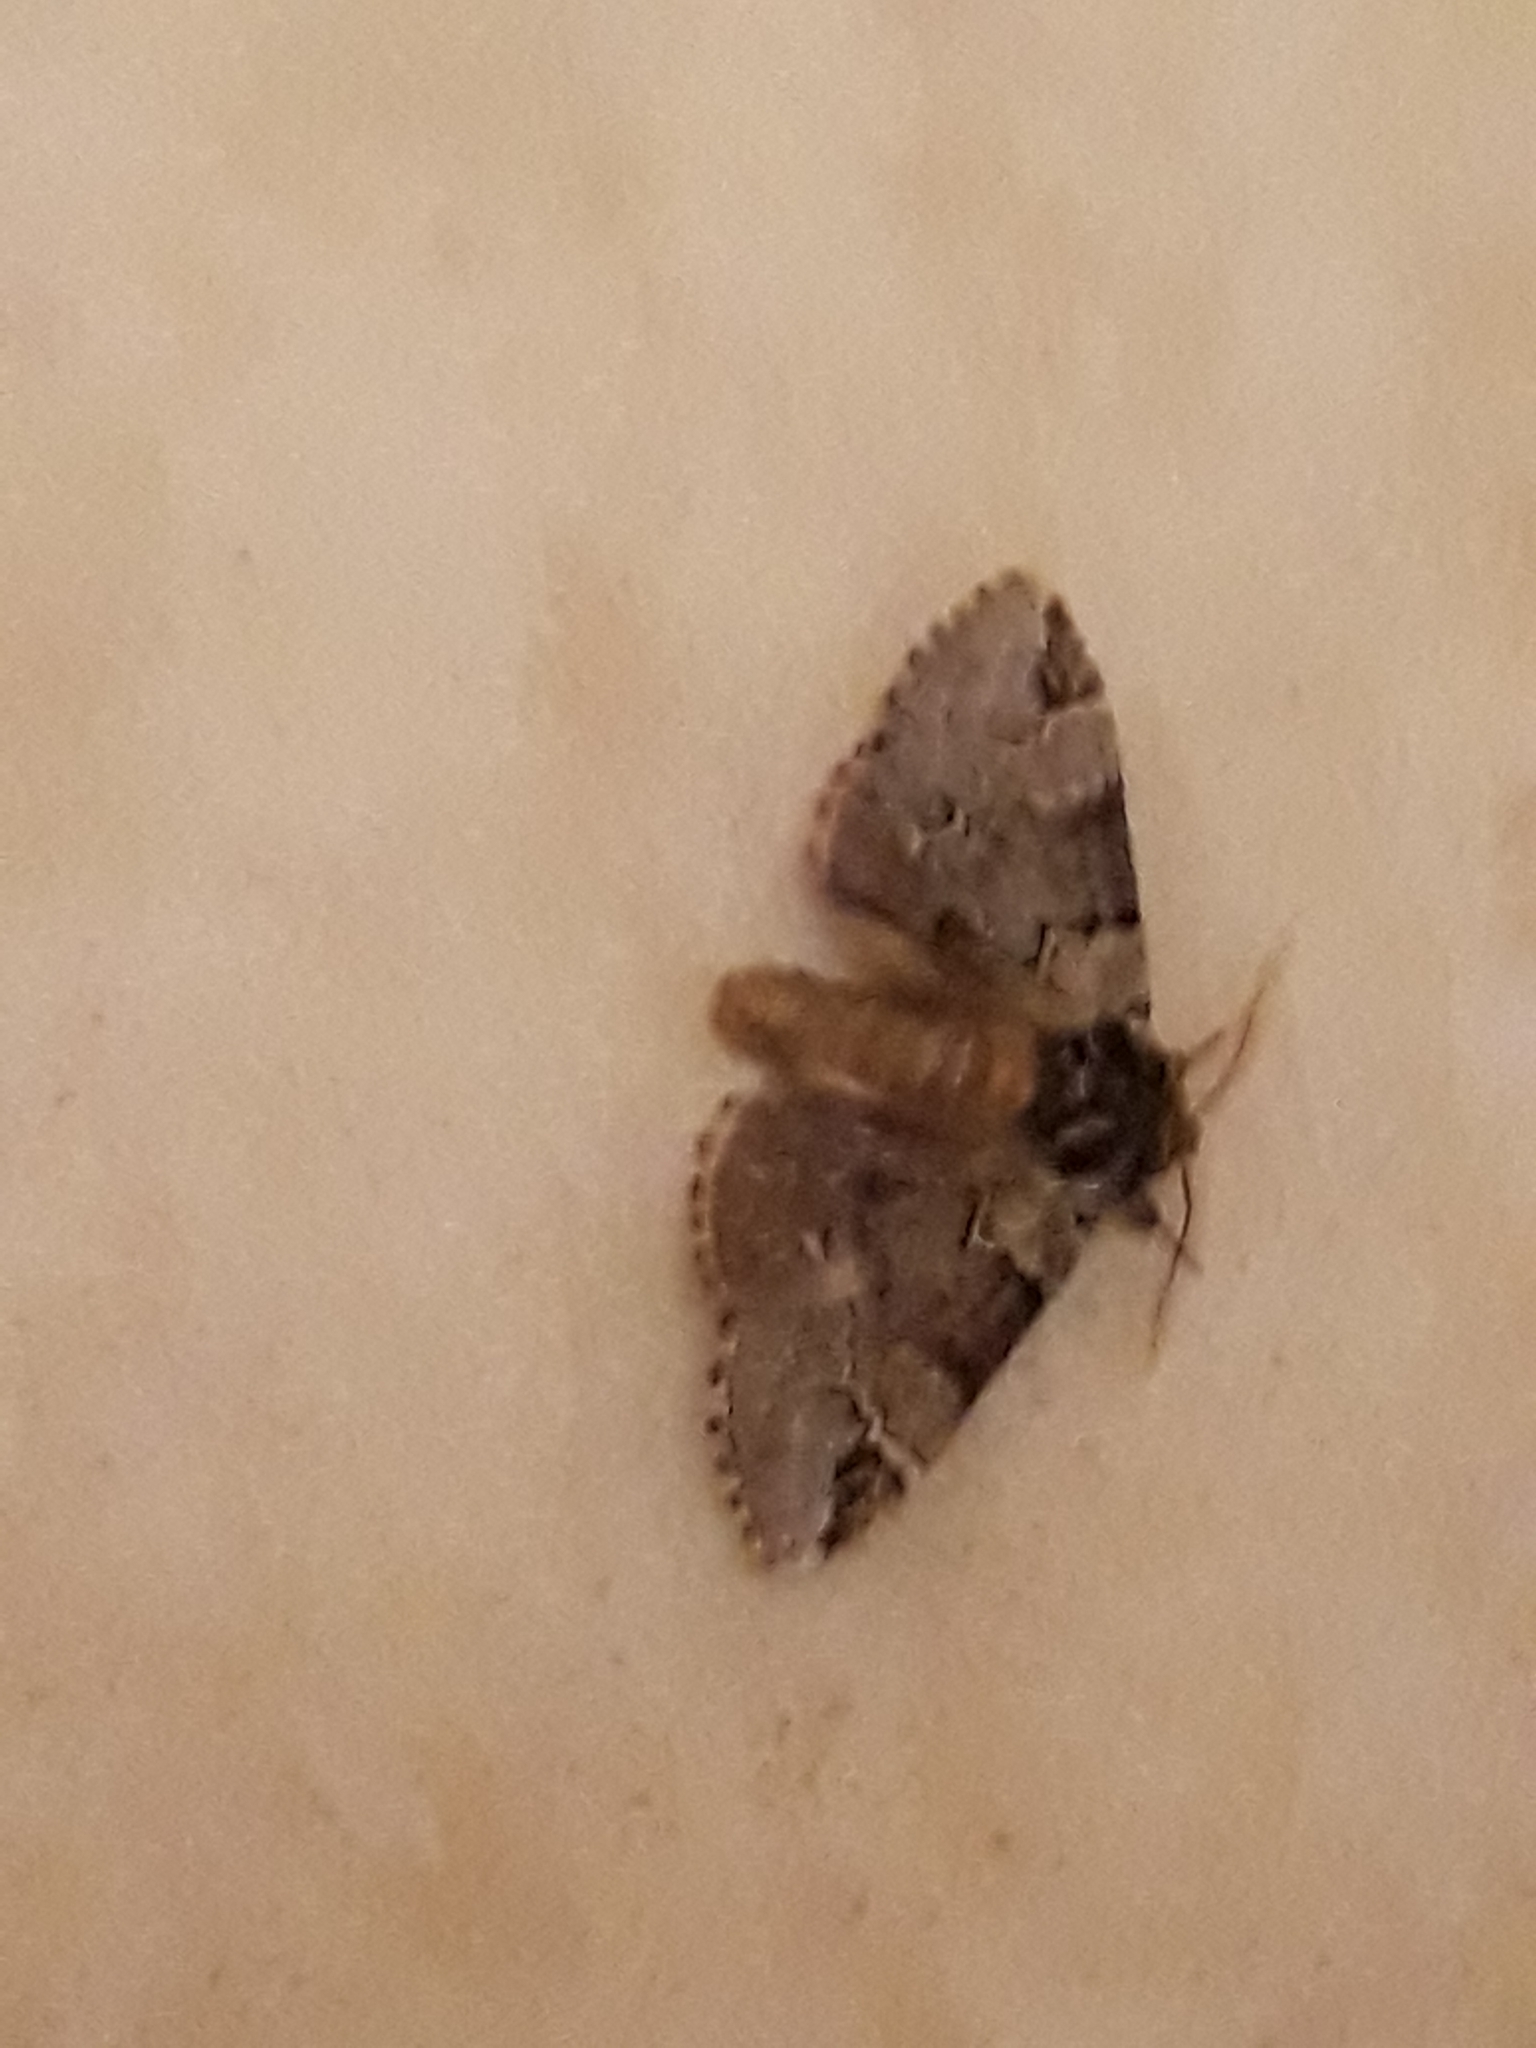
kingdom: Animalia
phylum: Arthropoda
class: Insecta
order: Lepidoptera
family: Notodontidae
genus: Drymonia
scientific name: Drymonia obliterata
